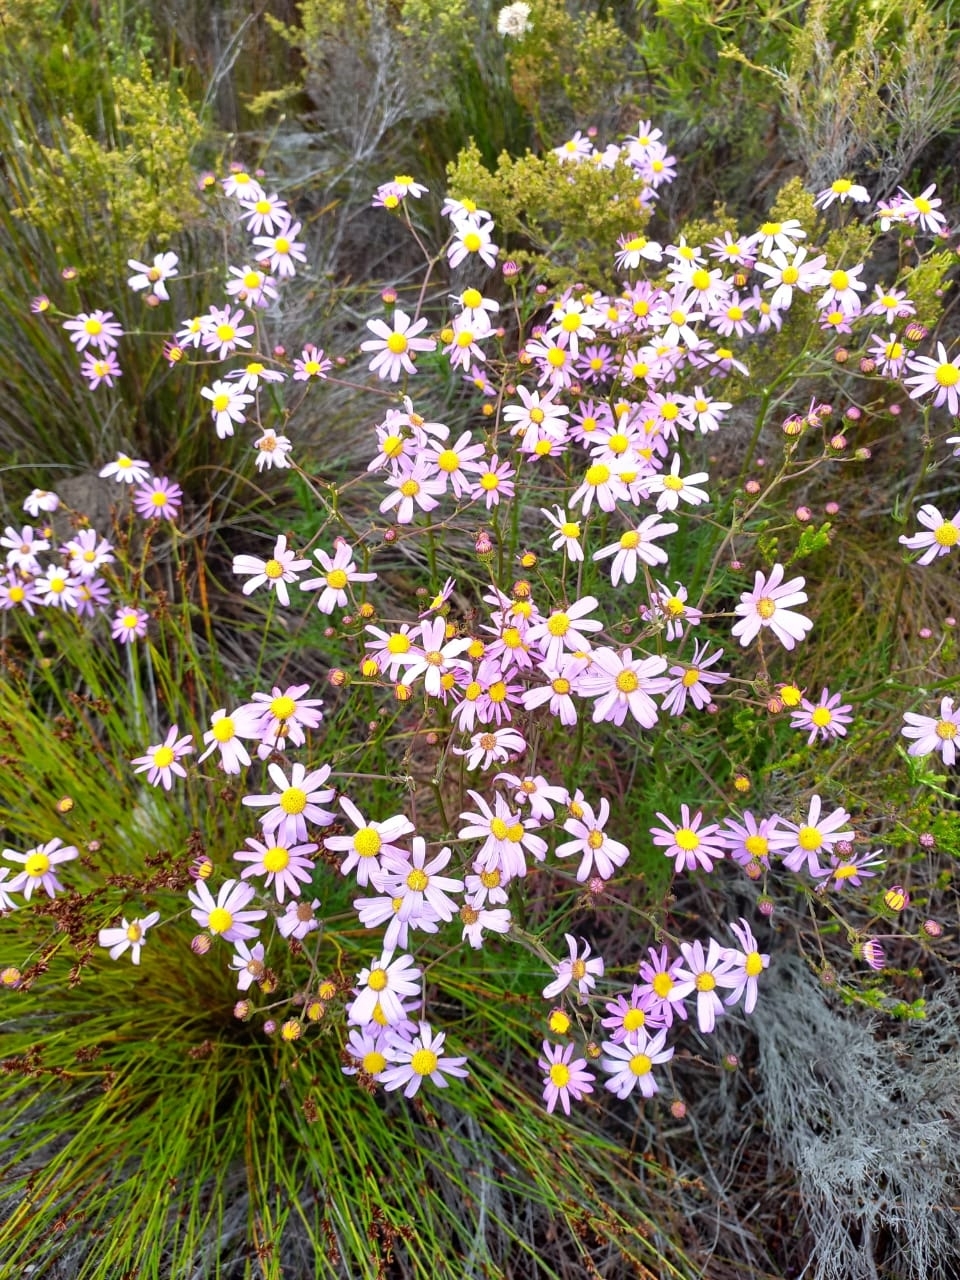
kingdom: Plantae
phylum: Tracheophyta
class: Magnoliopsida
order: Asterales
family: Asteraceae
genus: Senecio
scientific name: Senecio umbellatus
